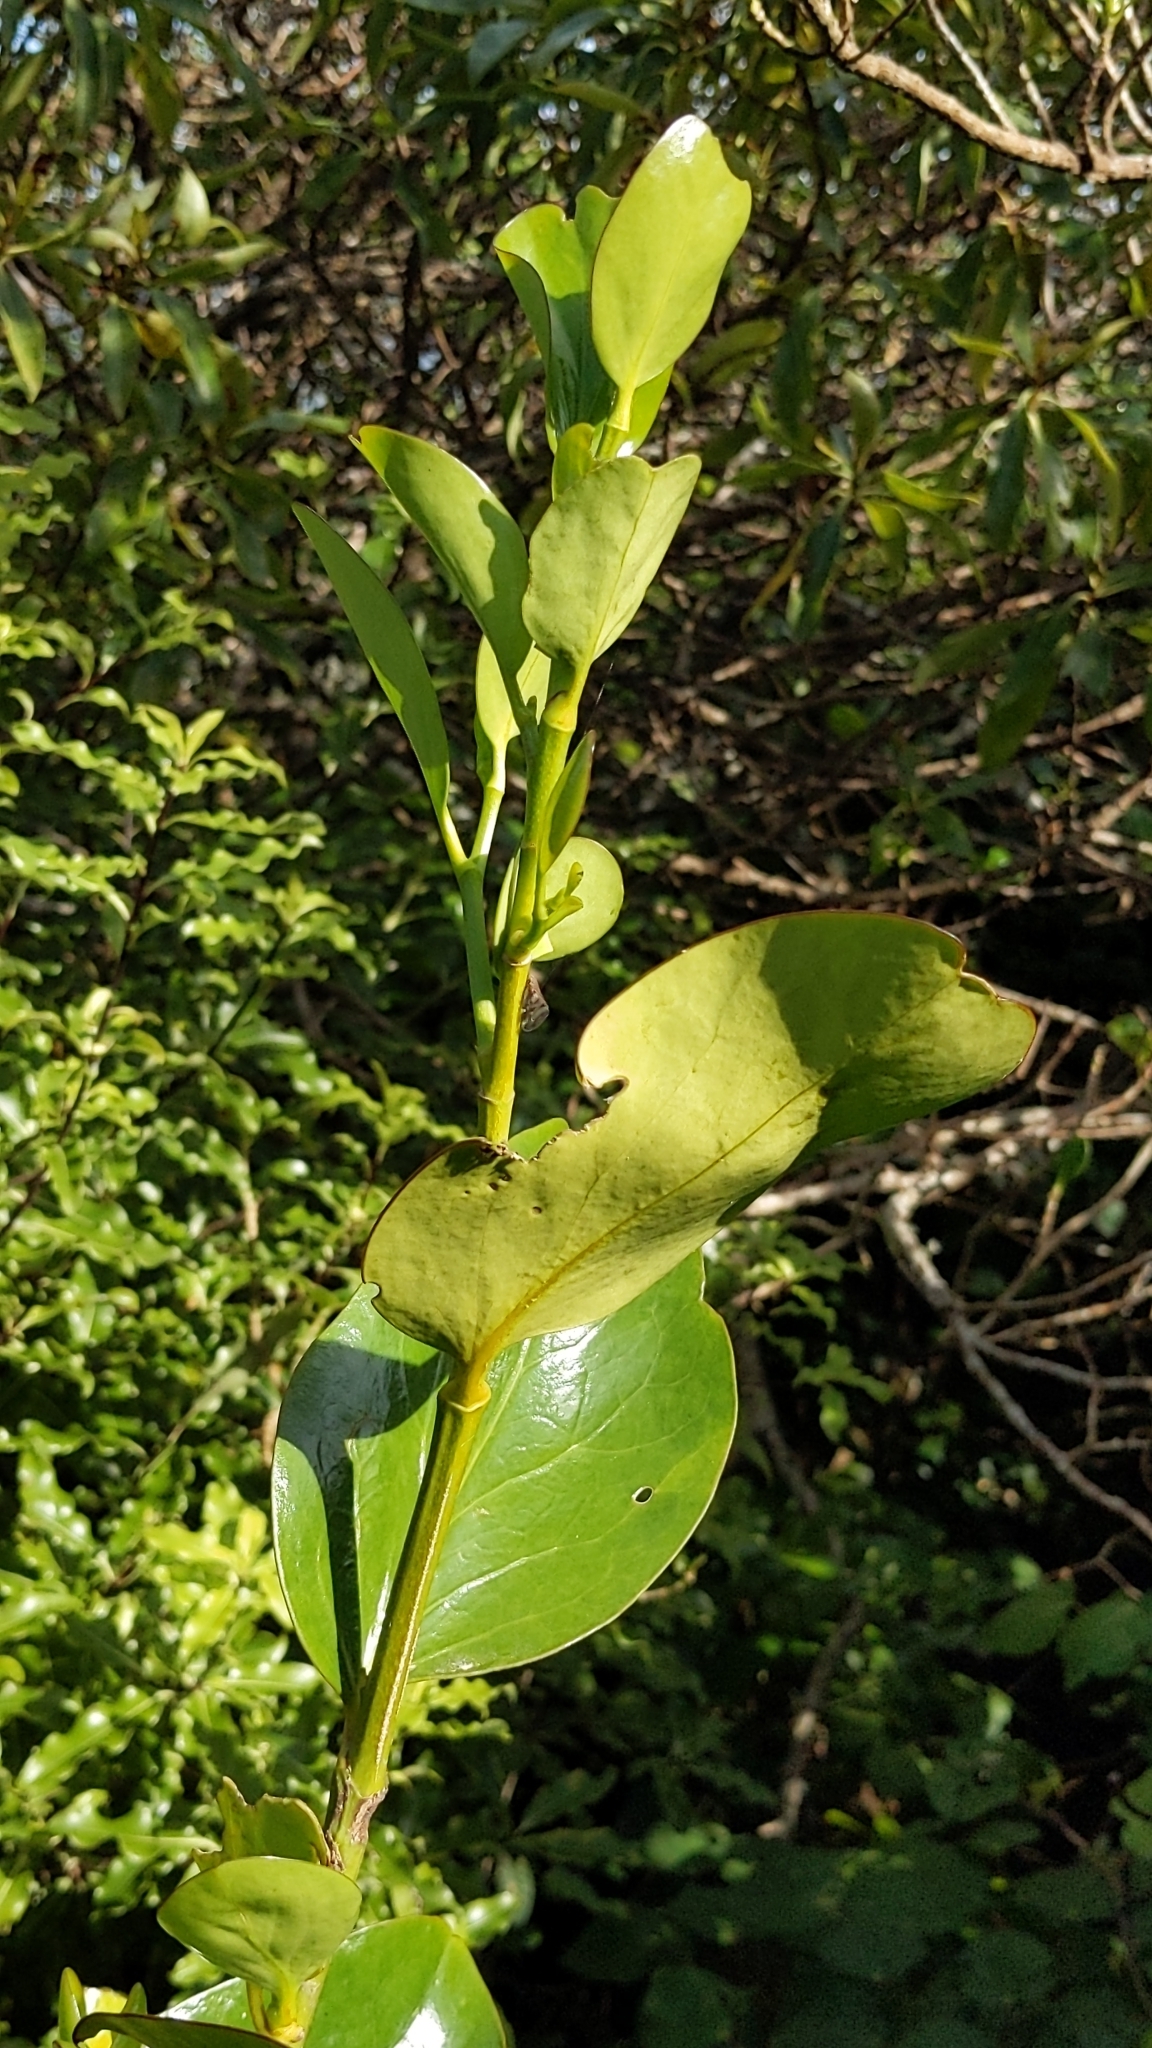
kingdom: Plantae
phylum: Tracheophyta
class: Magnoliopsida
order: Apiales
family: Griseliniaceae
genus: Griselinia
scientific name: Griselinia lucida
